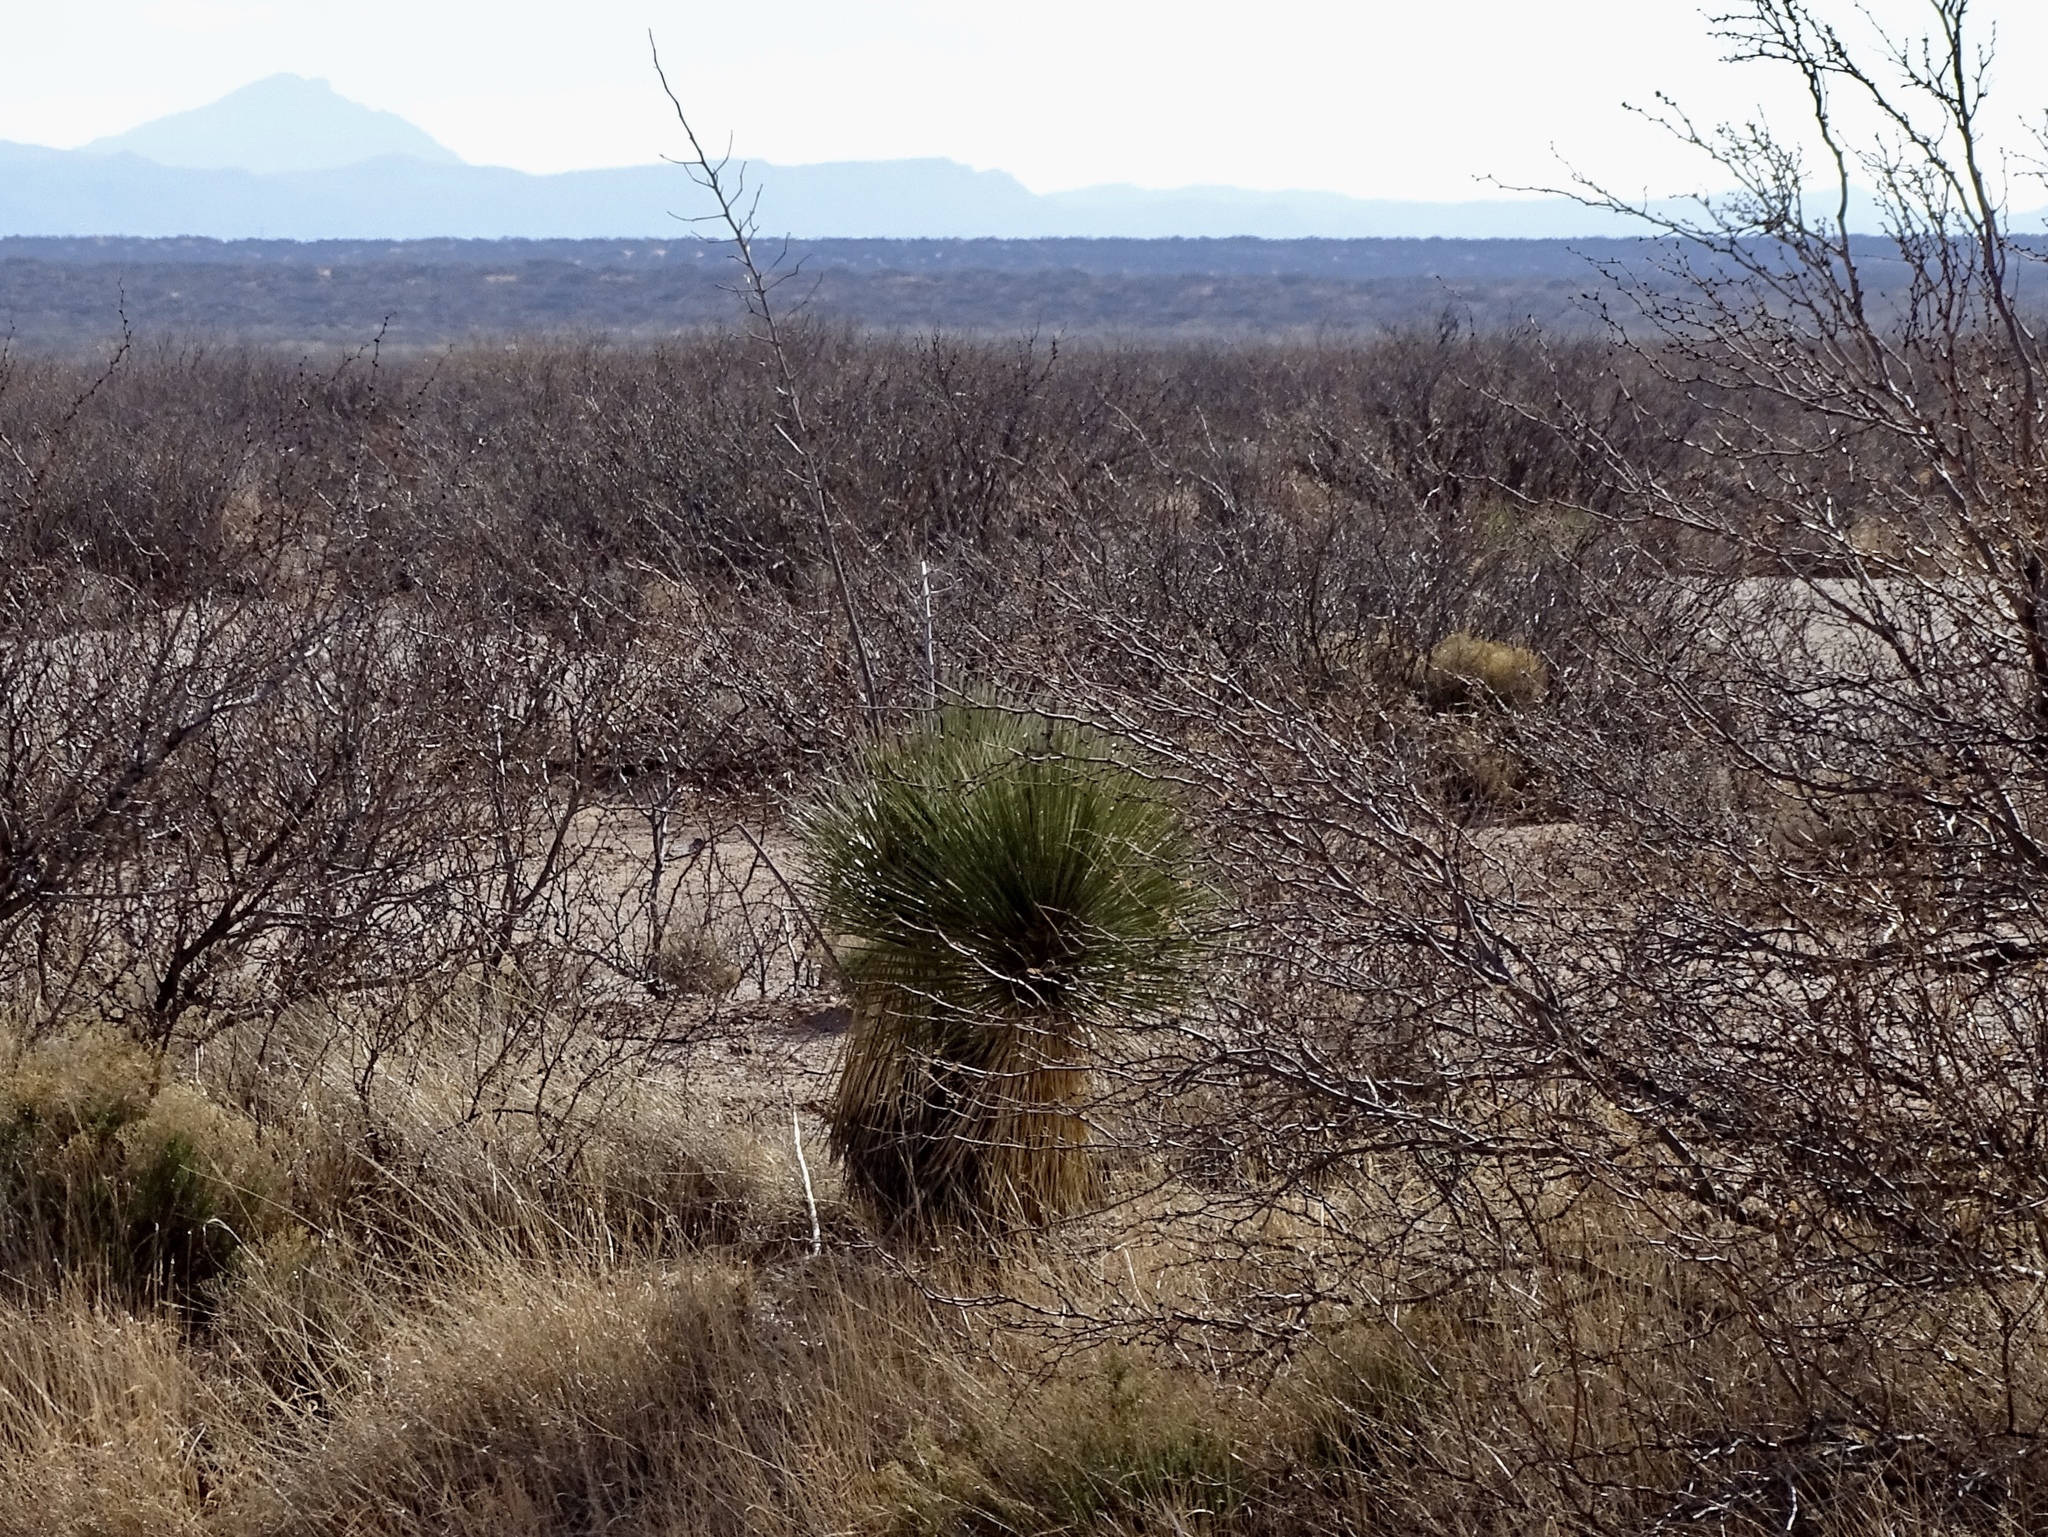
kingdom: Plantae
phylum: Tracheophyta
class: Liliopsida
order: Asparagales
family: Asparagaceae
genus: Yucca
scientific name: Yucca elata
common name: Palmella
